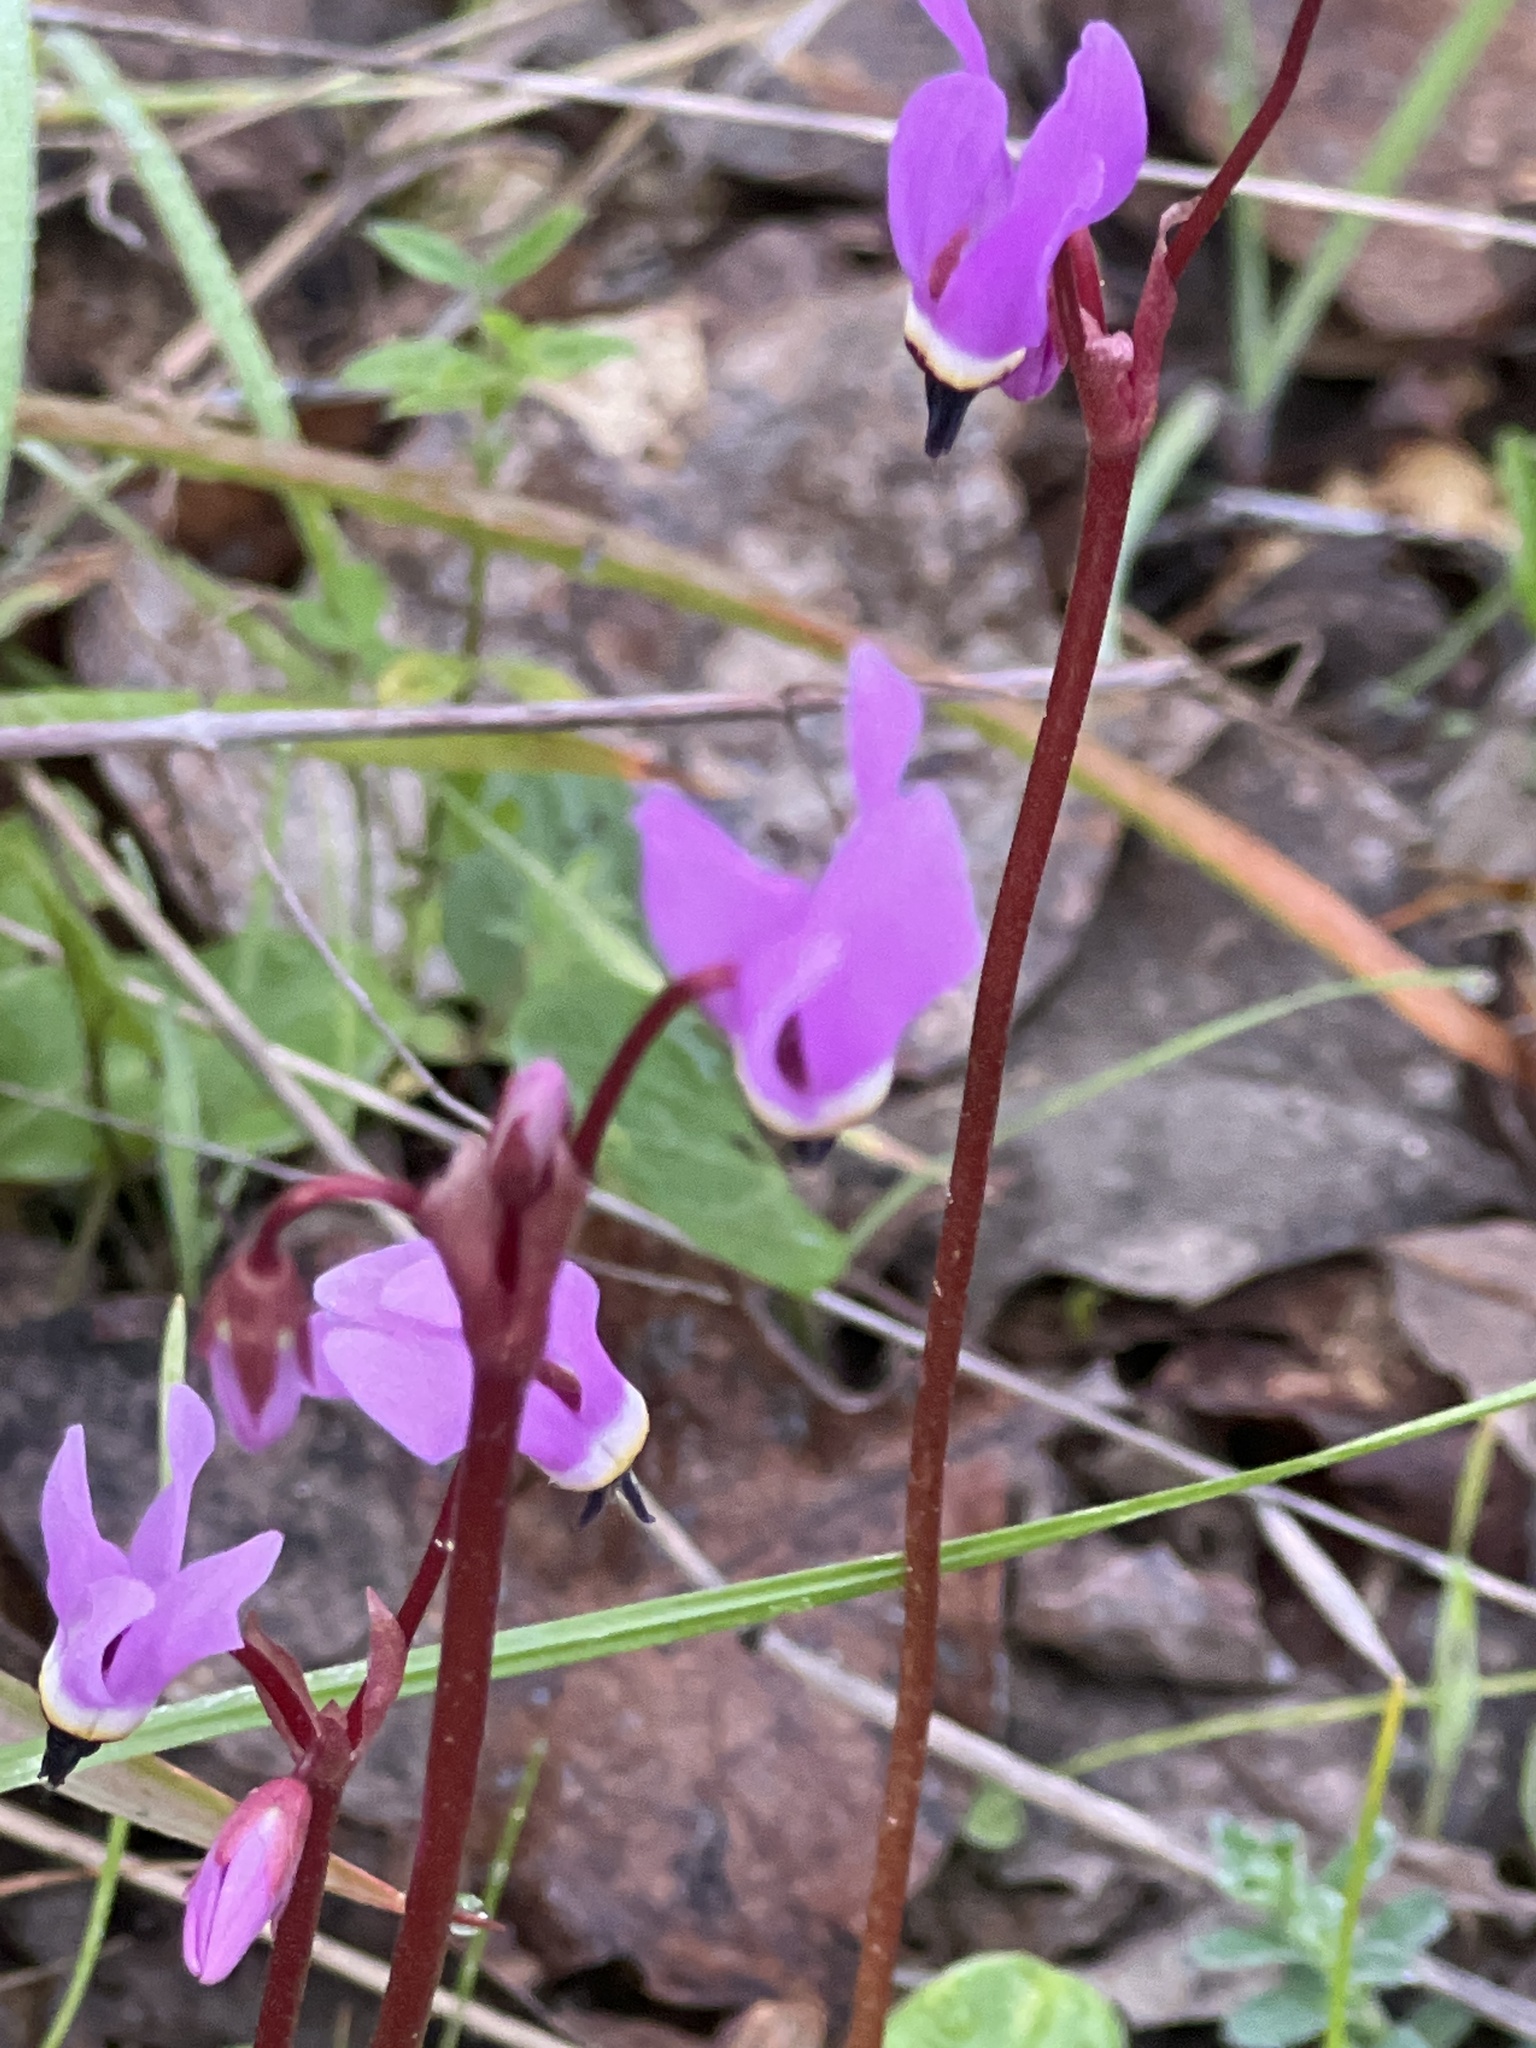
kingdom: Plantae
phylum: Tracheophyta
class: Magnoliopsida
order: Ericales
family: Primulaceae
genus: Dodecatheon
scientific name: Dodecatheon hendersonii
